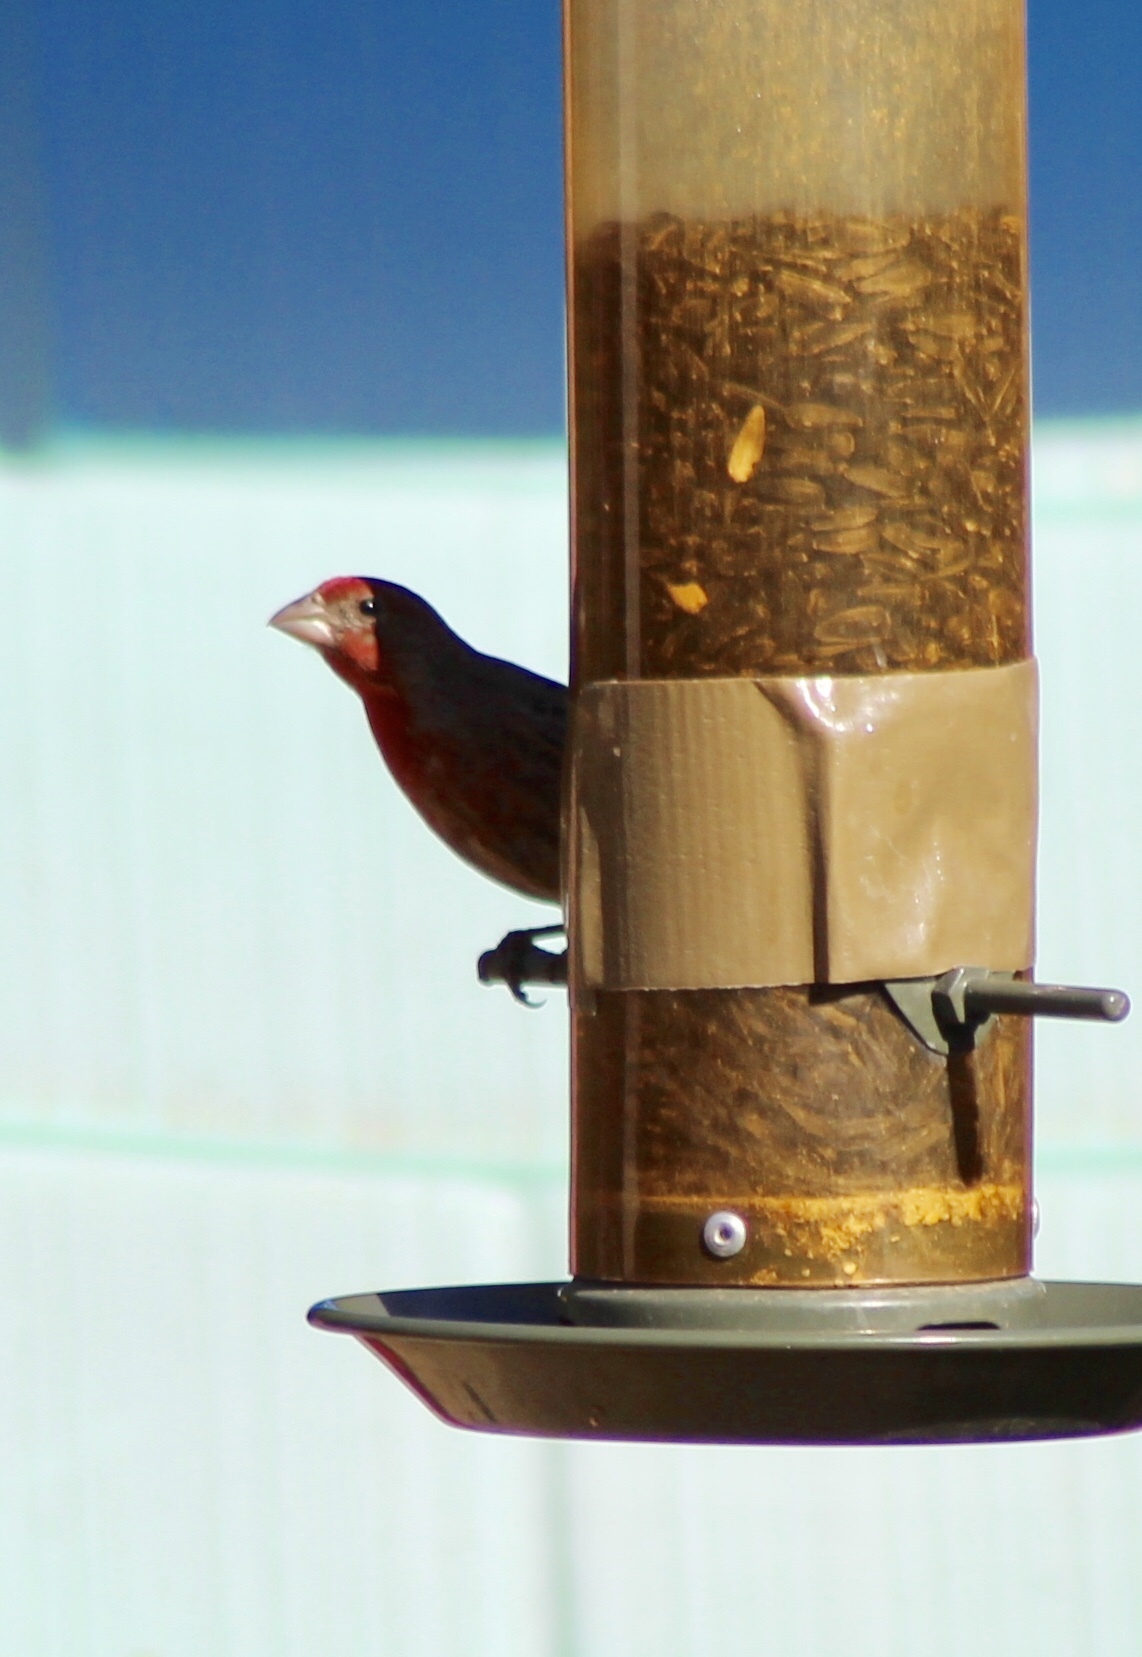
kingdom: Animalia
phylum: Chordata
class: Aves
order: Passeriformes
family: Fringillidae
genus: Haemorhous
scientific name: Haemorhous mexicanus
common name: House finch
